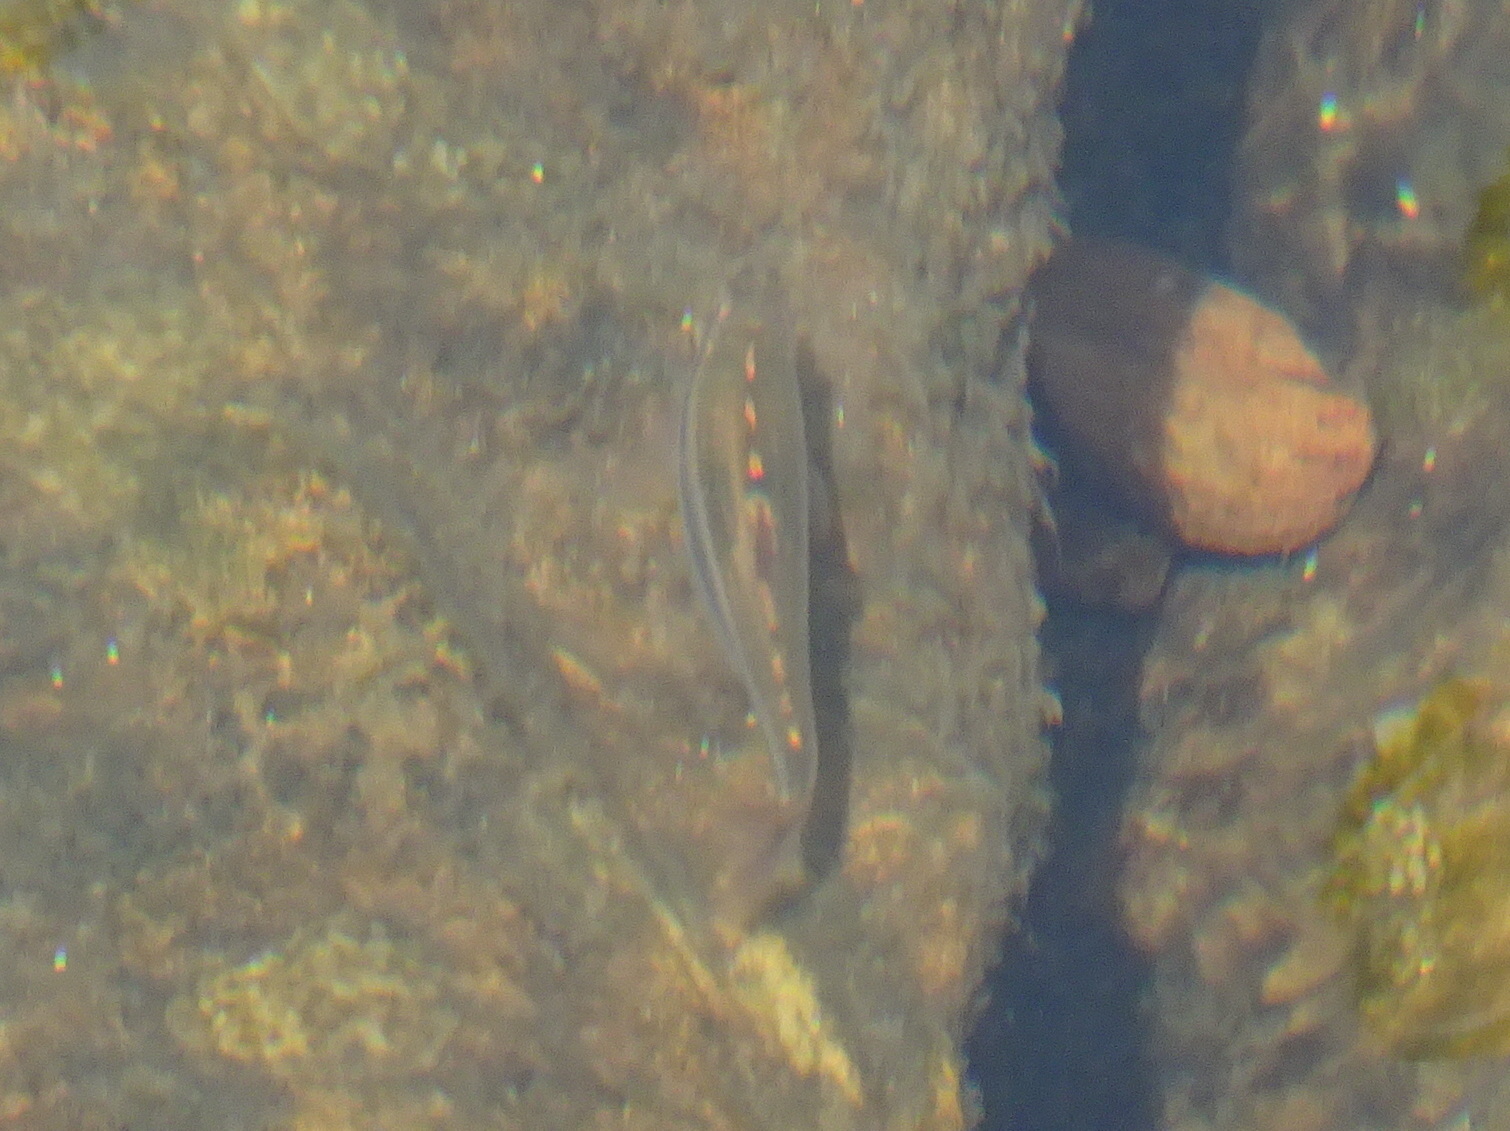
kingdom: Animalia
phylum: Chordata
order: Cypriniformes
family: Cyprinidae
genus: Notropis
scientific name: Notropis
